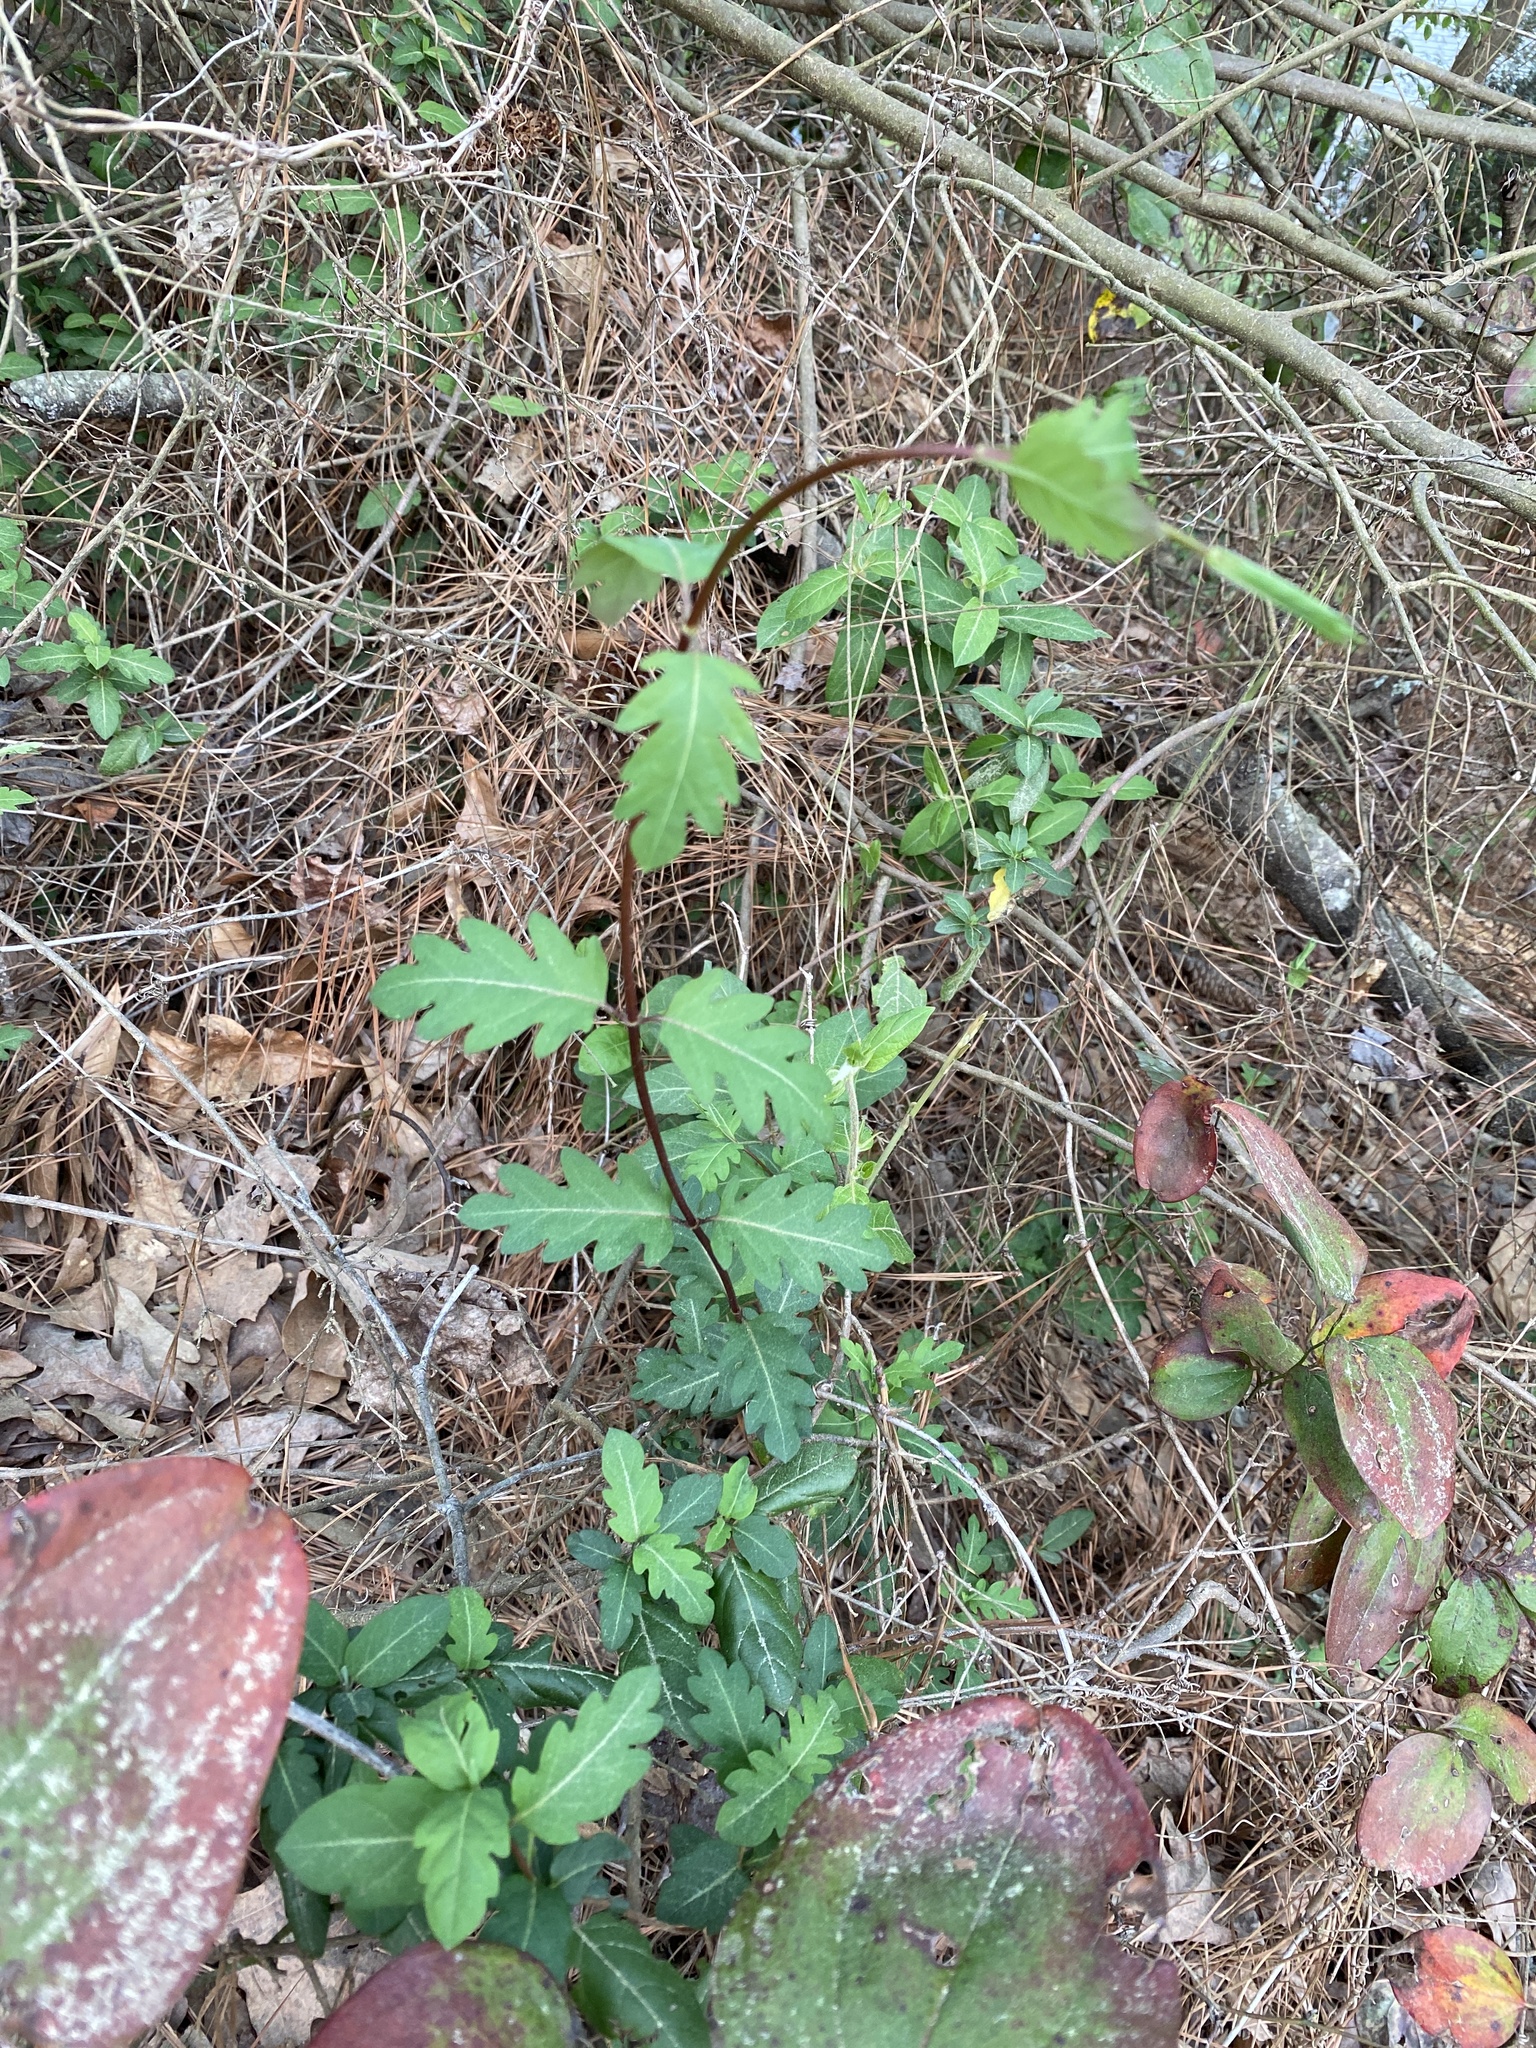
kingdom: Plantae
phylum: Tracheophyta
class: Magnoliopsida
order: Dipsacales
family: Caprifoliaceae
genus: Lonicera
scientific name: Lonicera japonica
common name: Japanese honeysuckle
